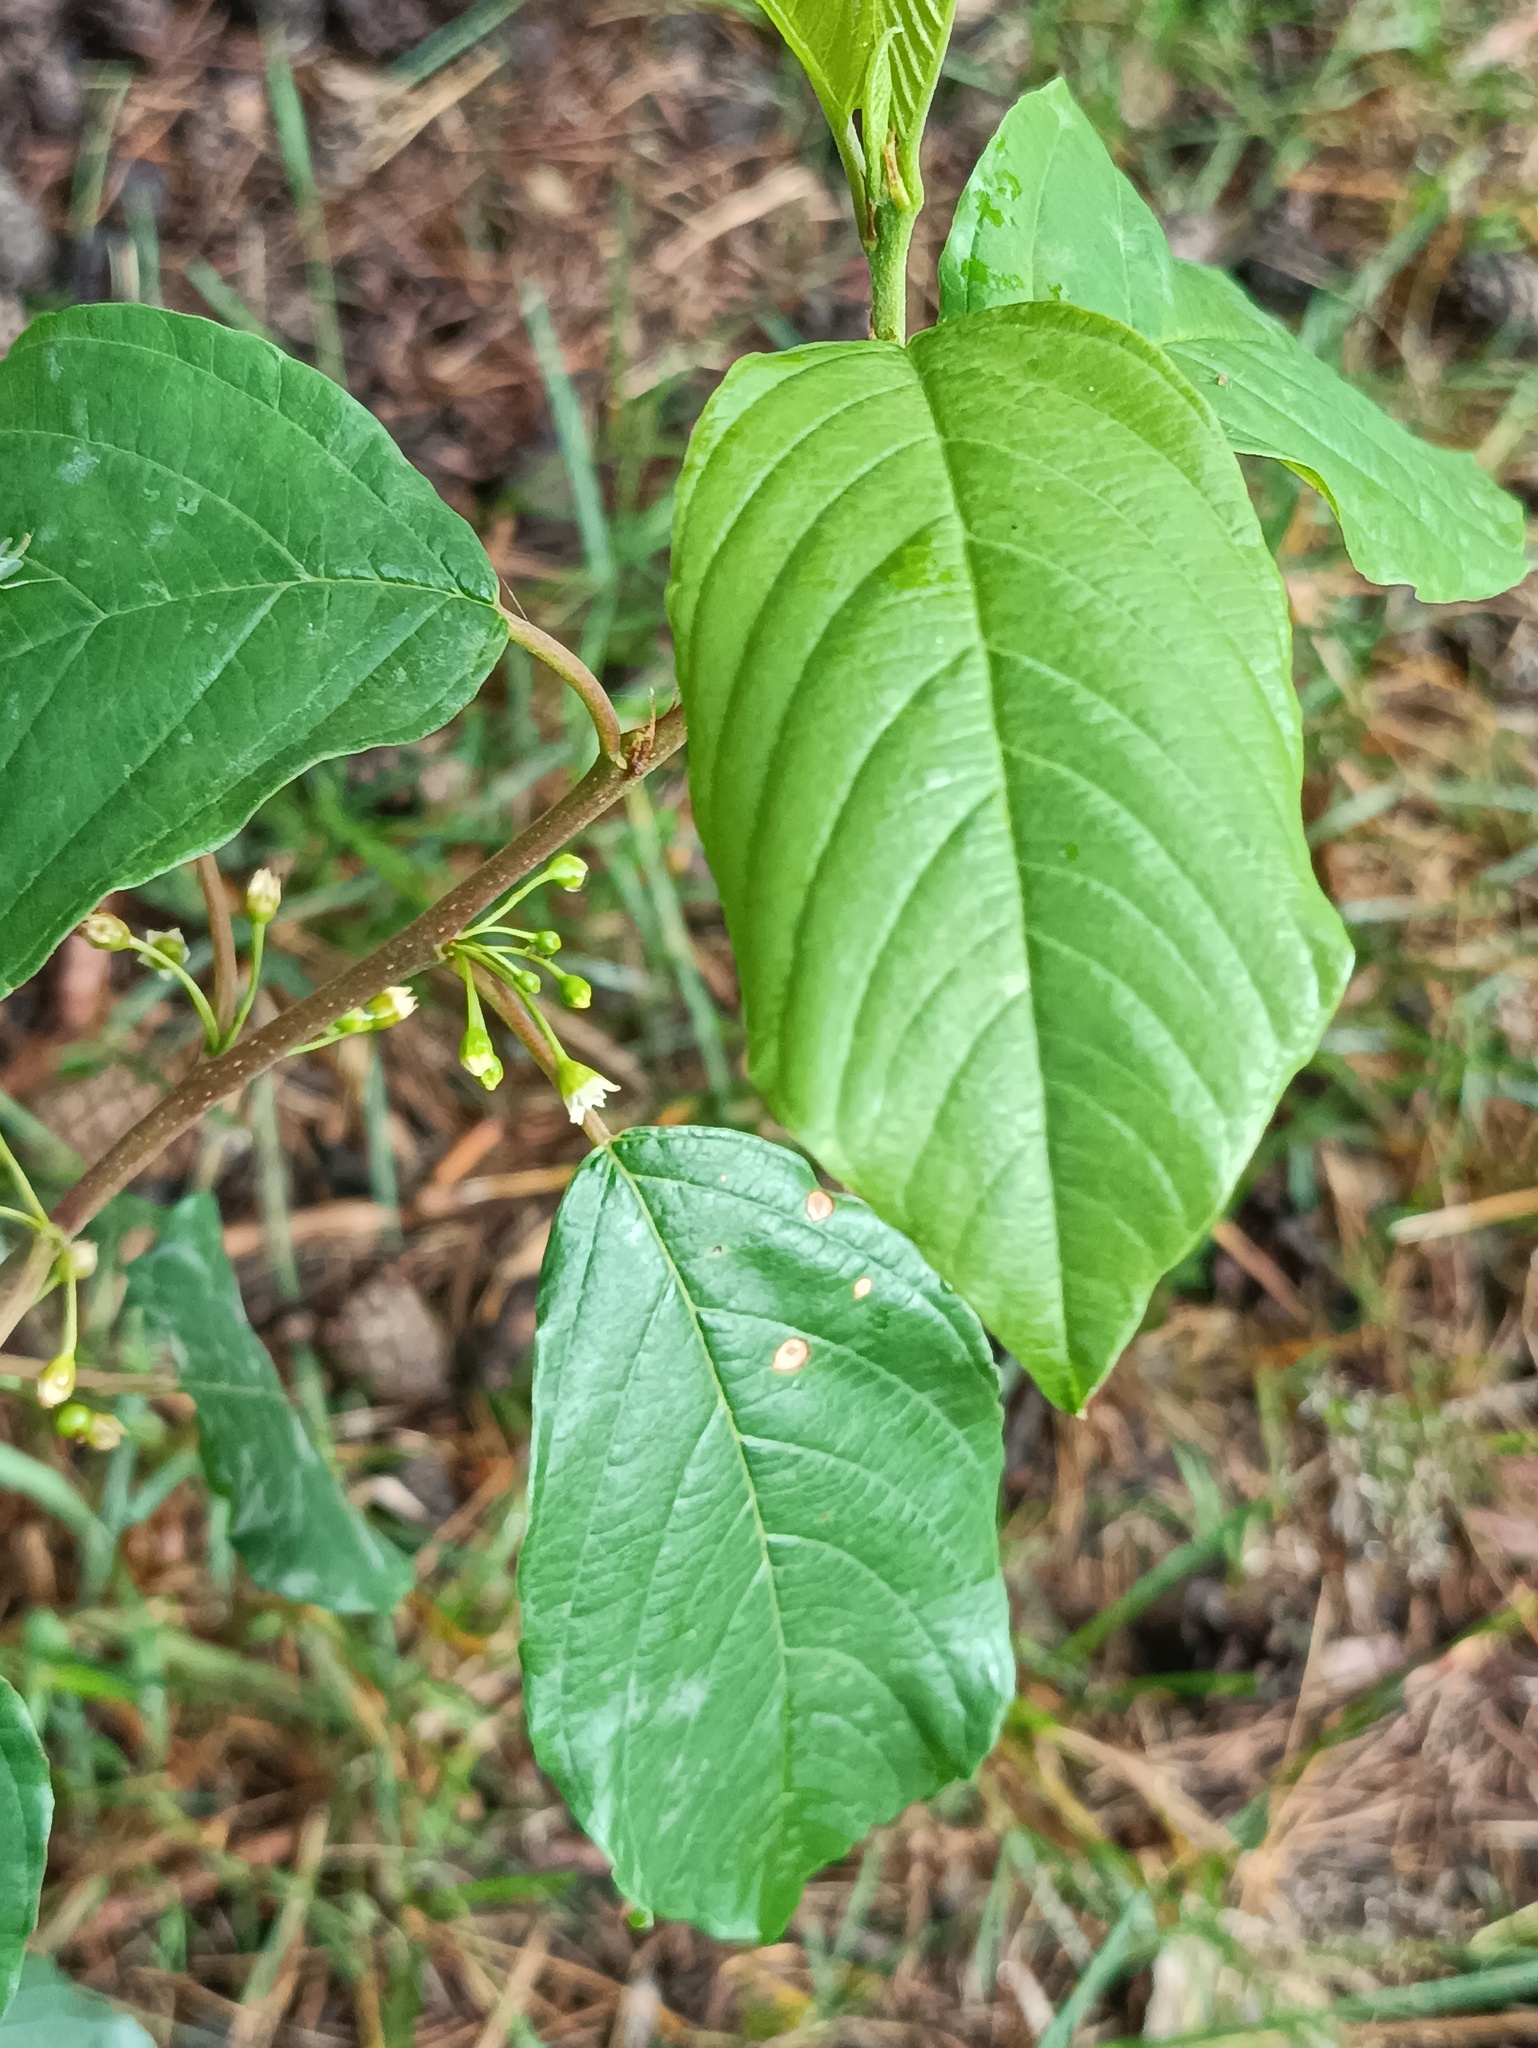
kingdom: Plantae
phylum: Tracheophyta
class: Magnoliopsida
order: Rosales
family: Rhamnaceae
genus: Frangula
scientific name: Frangula alnus
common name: Alder buckthorn
